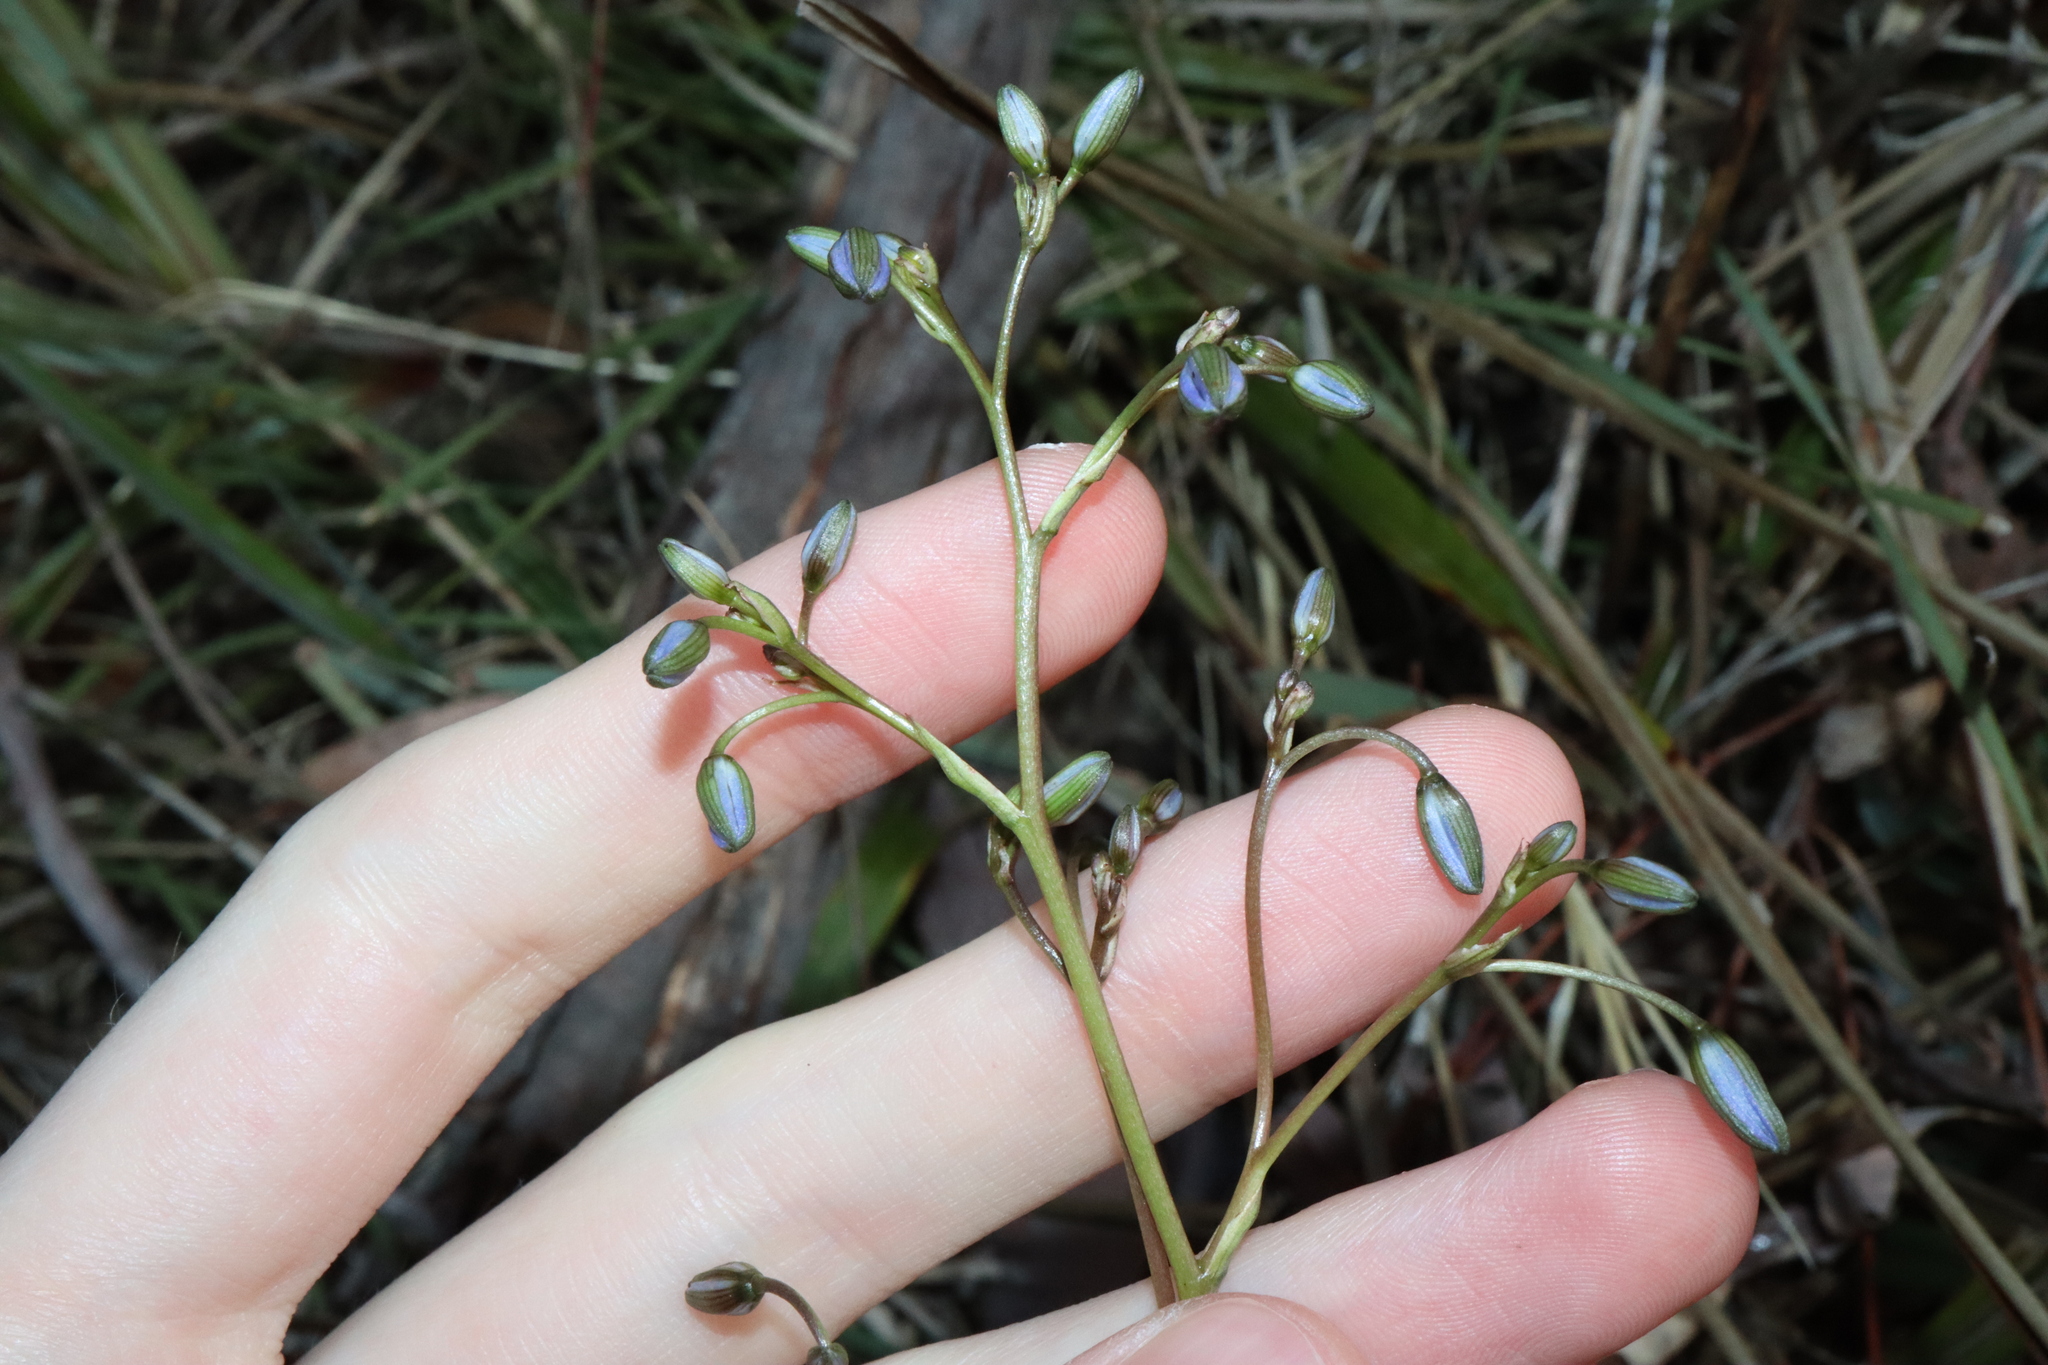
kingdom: Plantae
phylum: Tracheophyta
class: Liliopsida
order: Asparagales
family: Asphodelaceae
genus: Dianella
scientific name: Dianella revoluta
